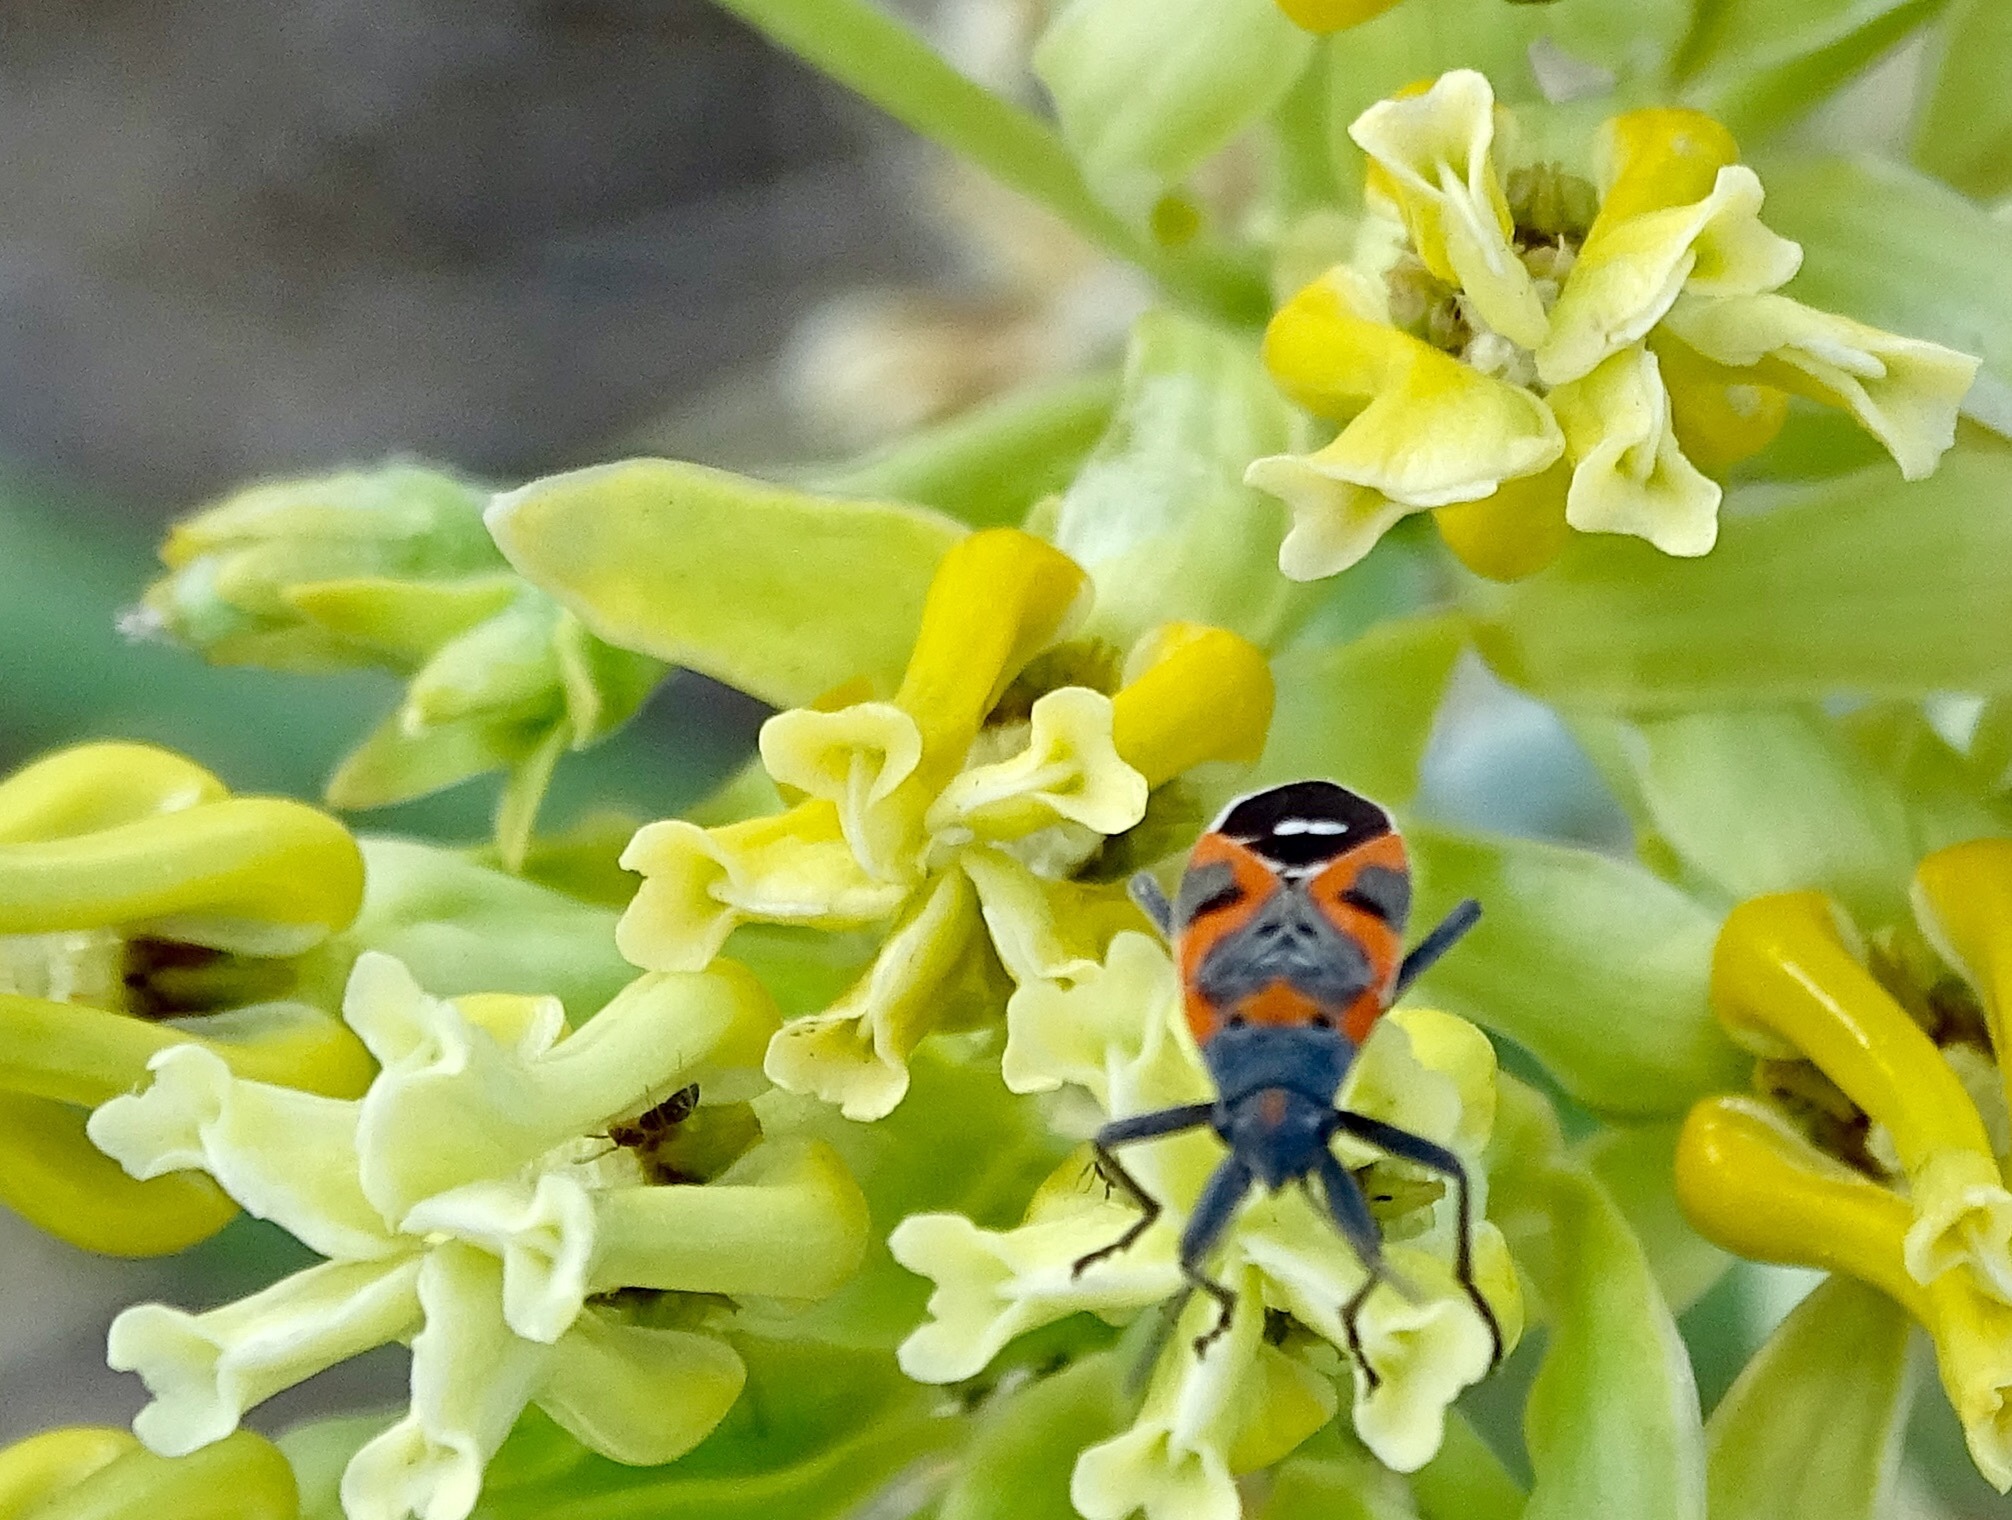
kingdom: Animalia
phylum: Arthropoda
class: Insecta
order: Hemiptera
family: Lygaeidae
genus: Lygaeus
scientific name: Lygaeus kalmii
